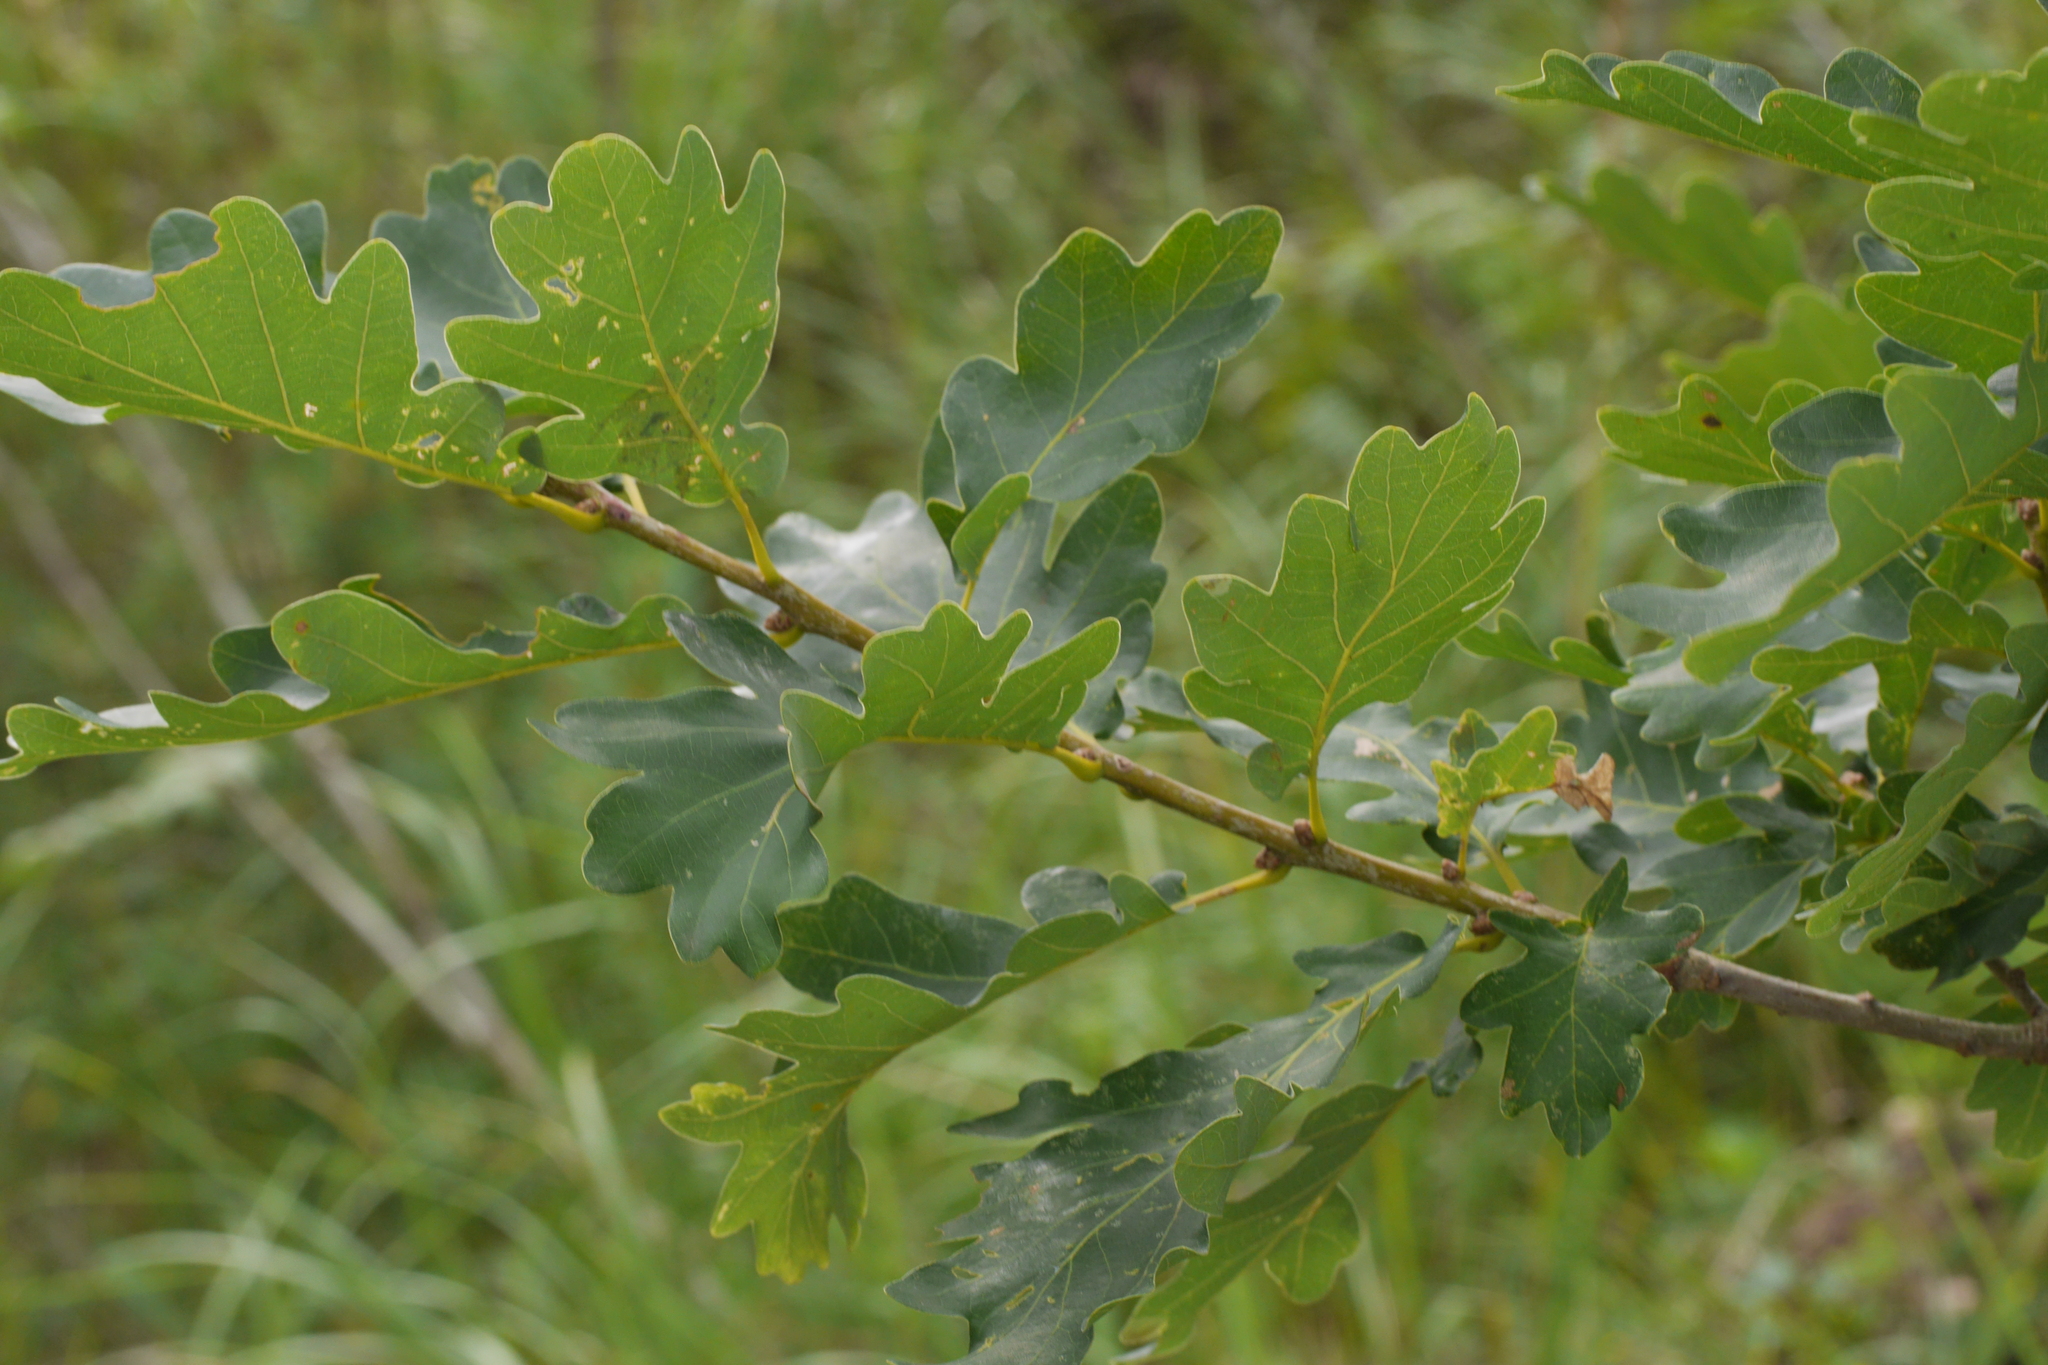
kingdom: Plantae
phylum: Tracheophyta
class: Magnoliopsida
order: Fagales
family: Fagaceae
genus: Quercus
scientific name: Quercus petraea
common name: Sessile oak
